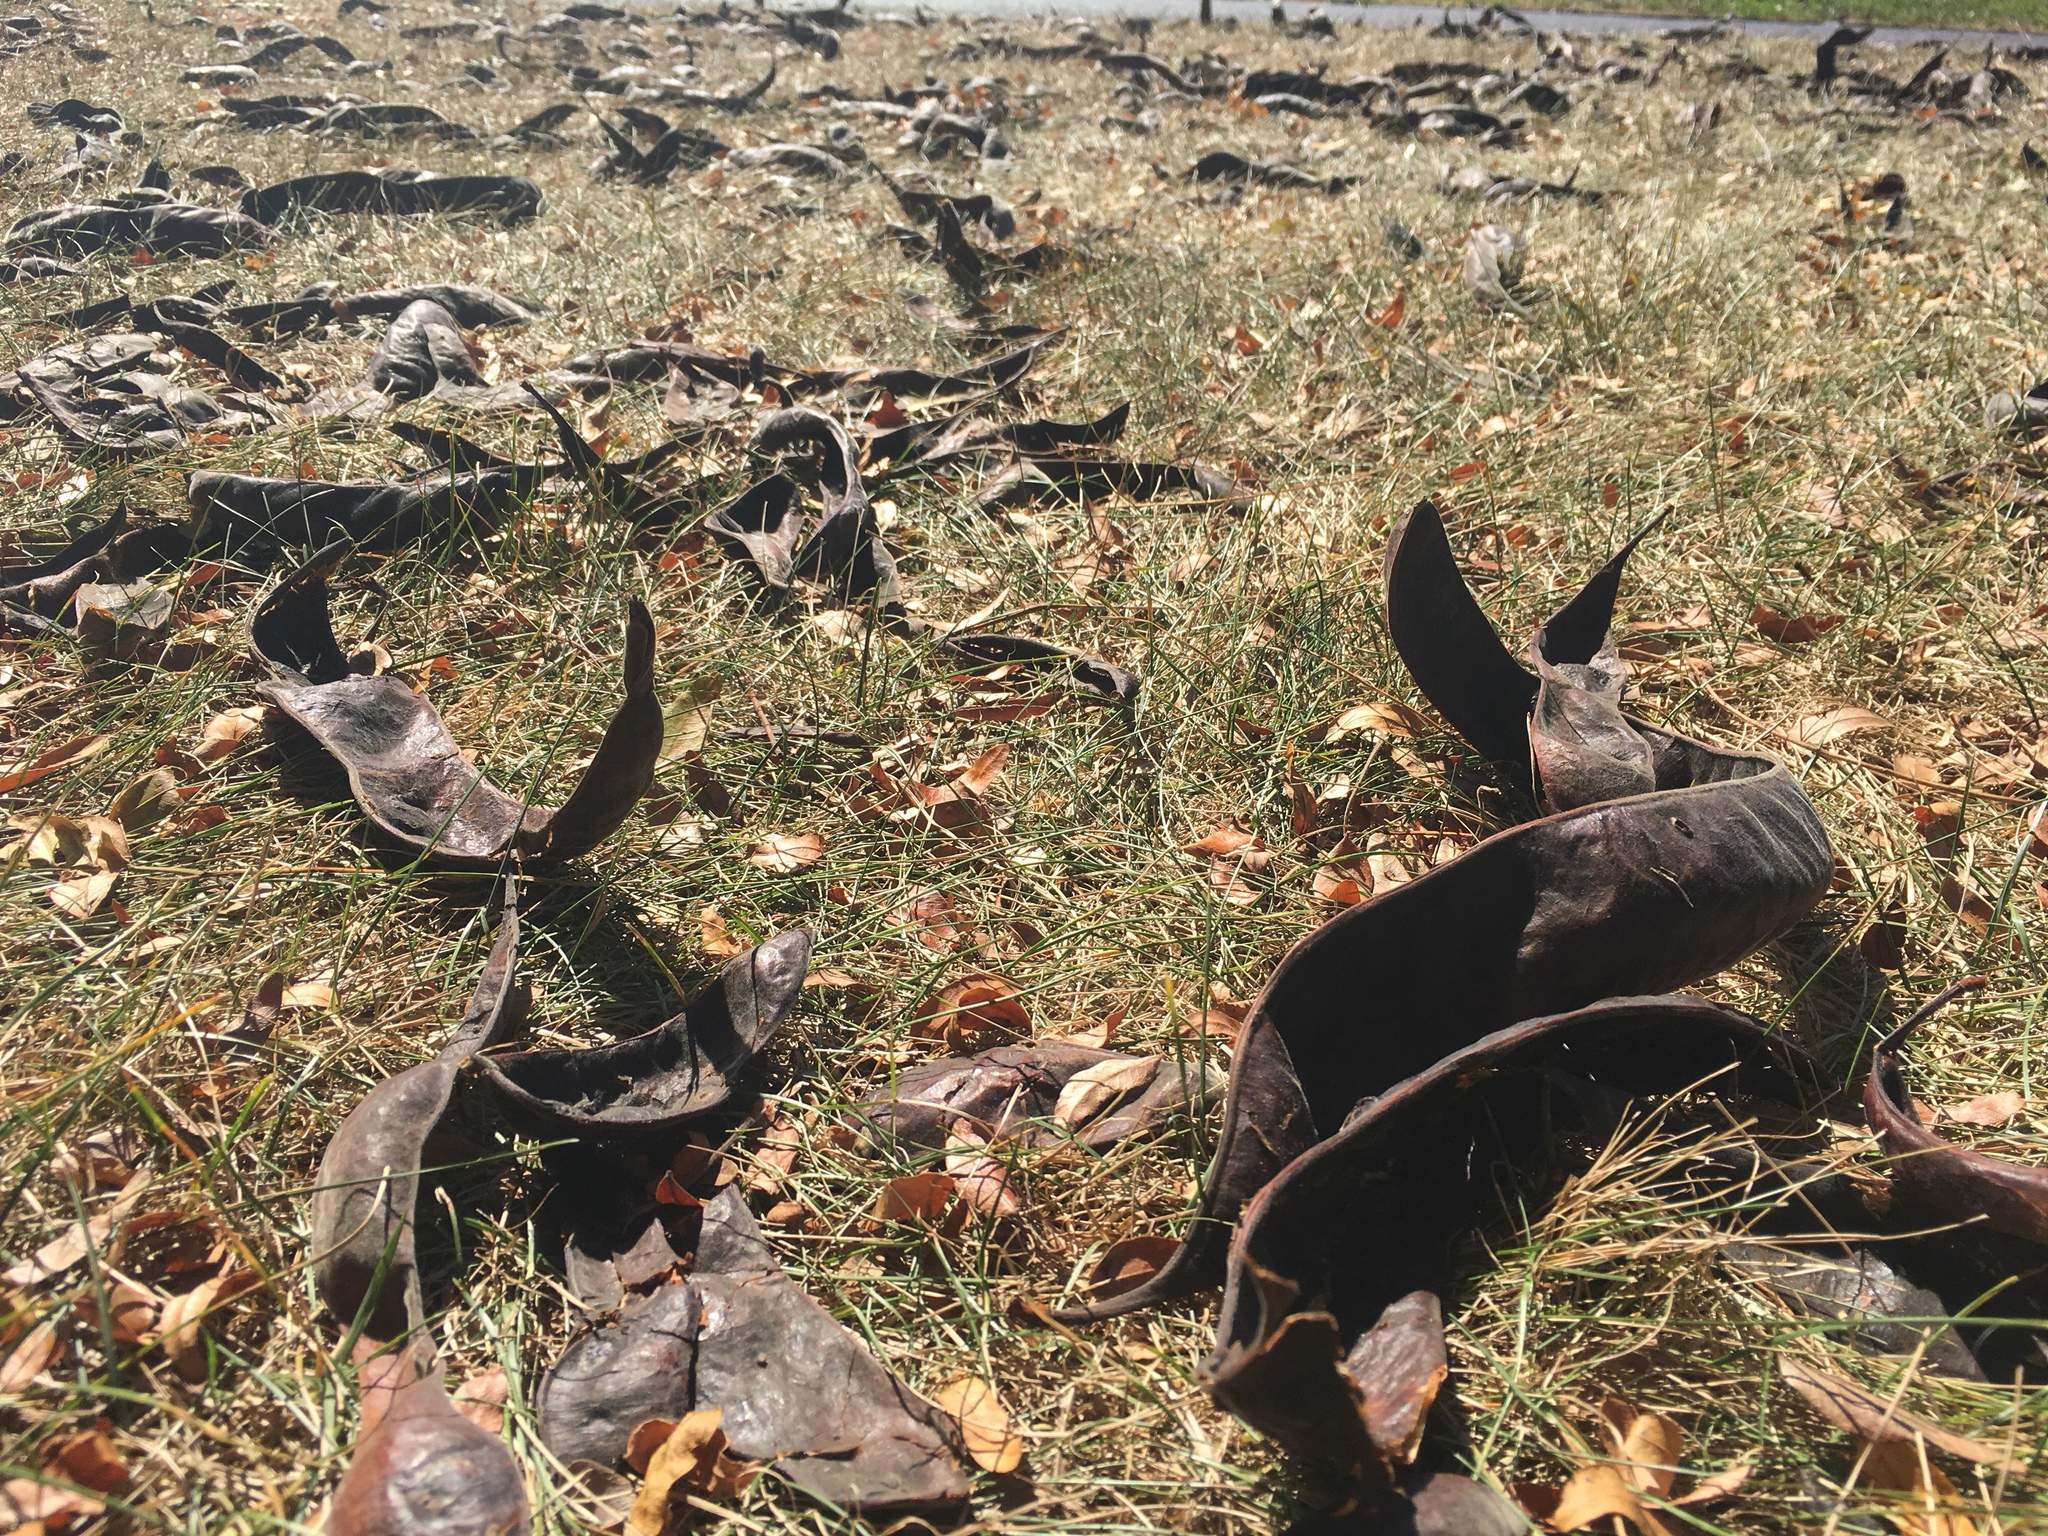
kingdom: Plantae
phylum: Tracheophyta
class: Magnoliopsida
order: Fabales
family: Fabaceae
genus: Gleditsia
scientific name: Gleditsia triacanthos
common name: Common honeylocust
